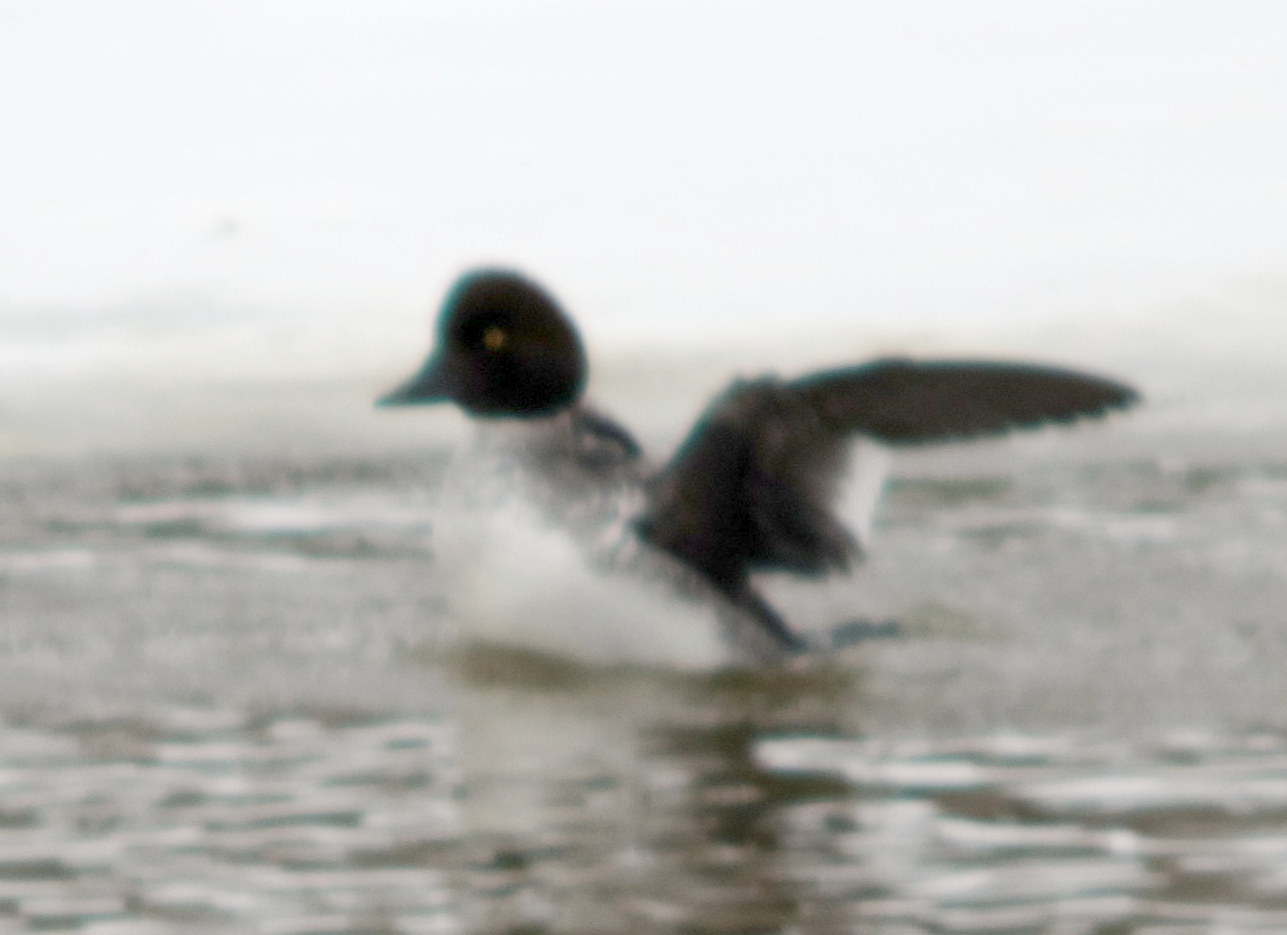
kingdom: Animalia
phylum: Chordata
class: Aves
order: Anseriformes
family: Anatidae
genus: Bucephala
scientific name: Bucephala clangula
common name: Common goldeneye
